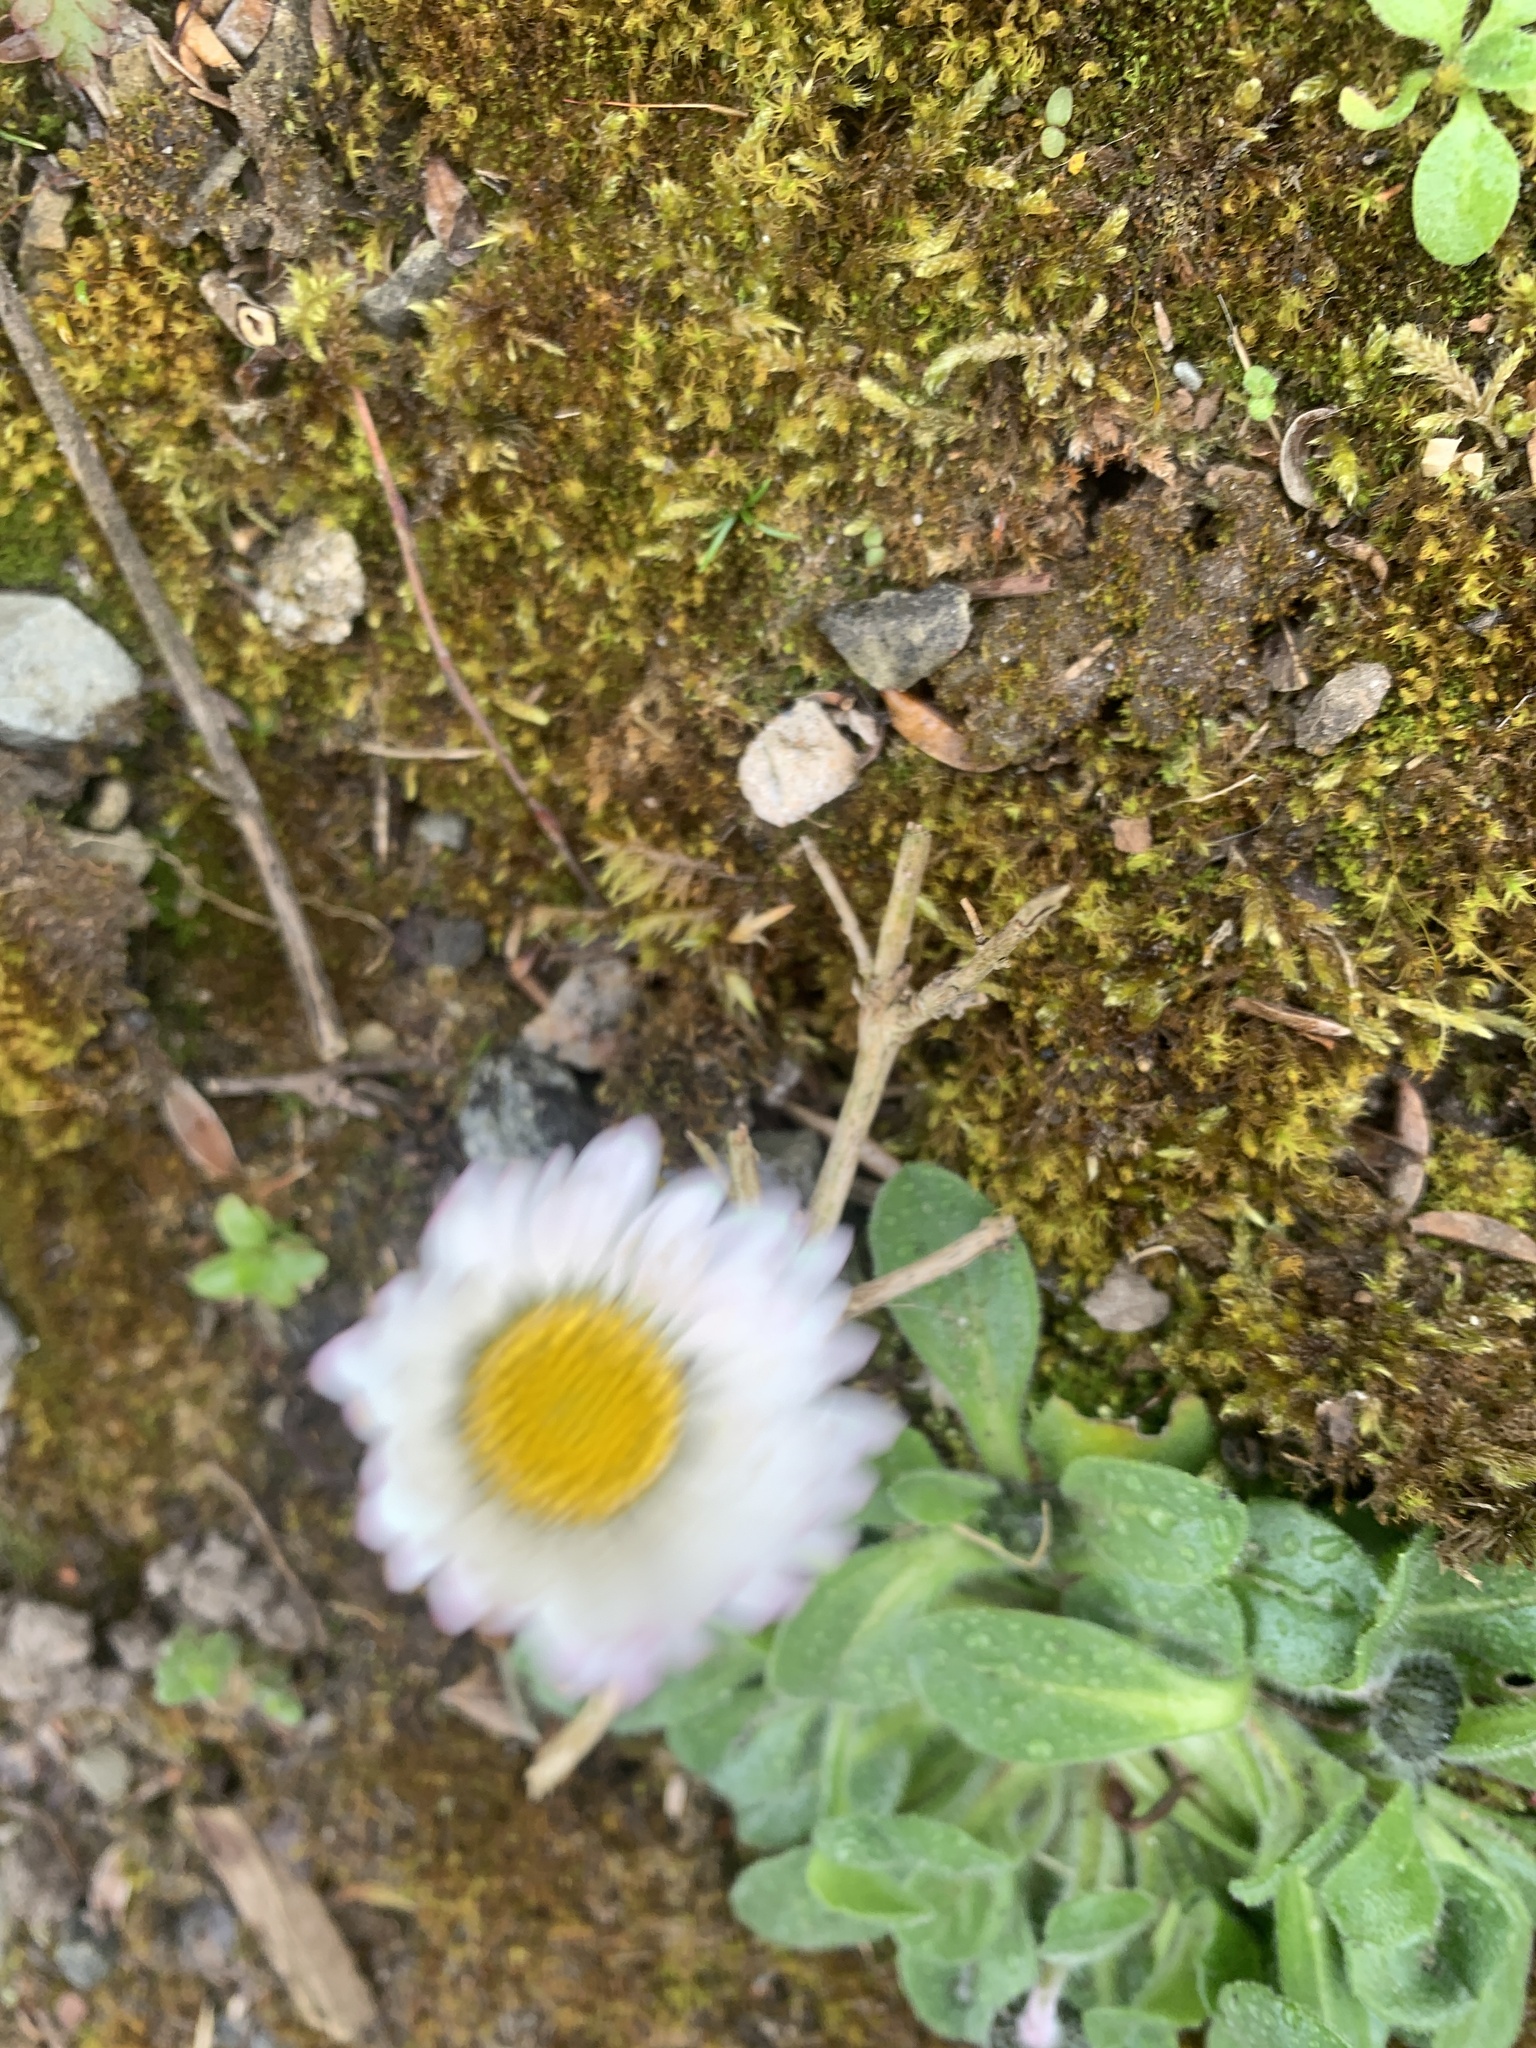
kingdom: Plantae
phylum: Tracheophyta
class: Magnoliopsida
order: Asterales
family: Asteraceae
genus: Bellis
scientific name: Bellis perennis
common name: Lawndaisy
